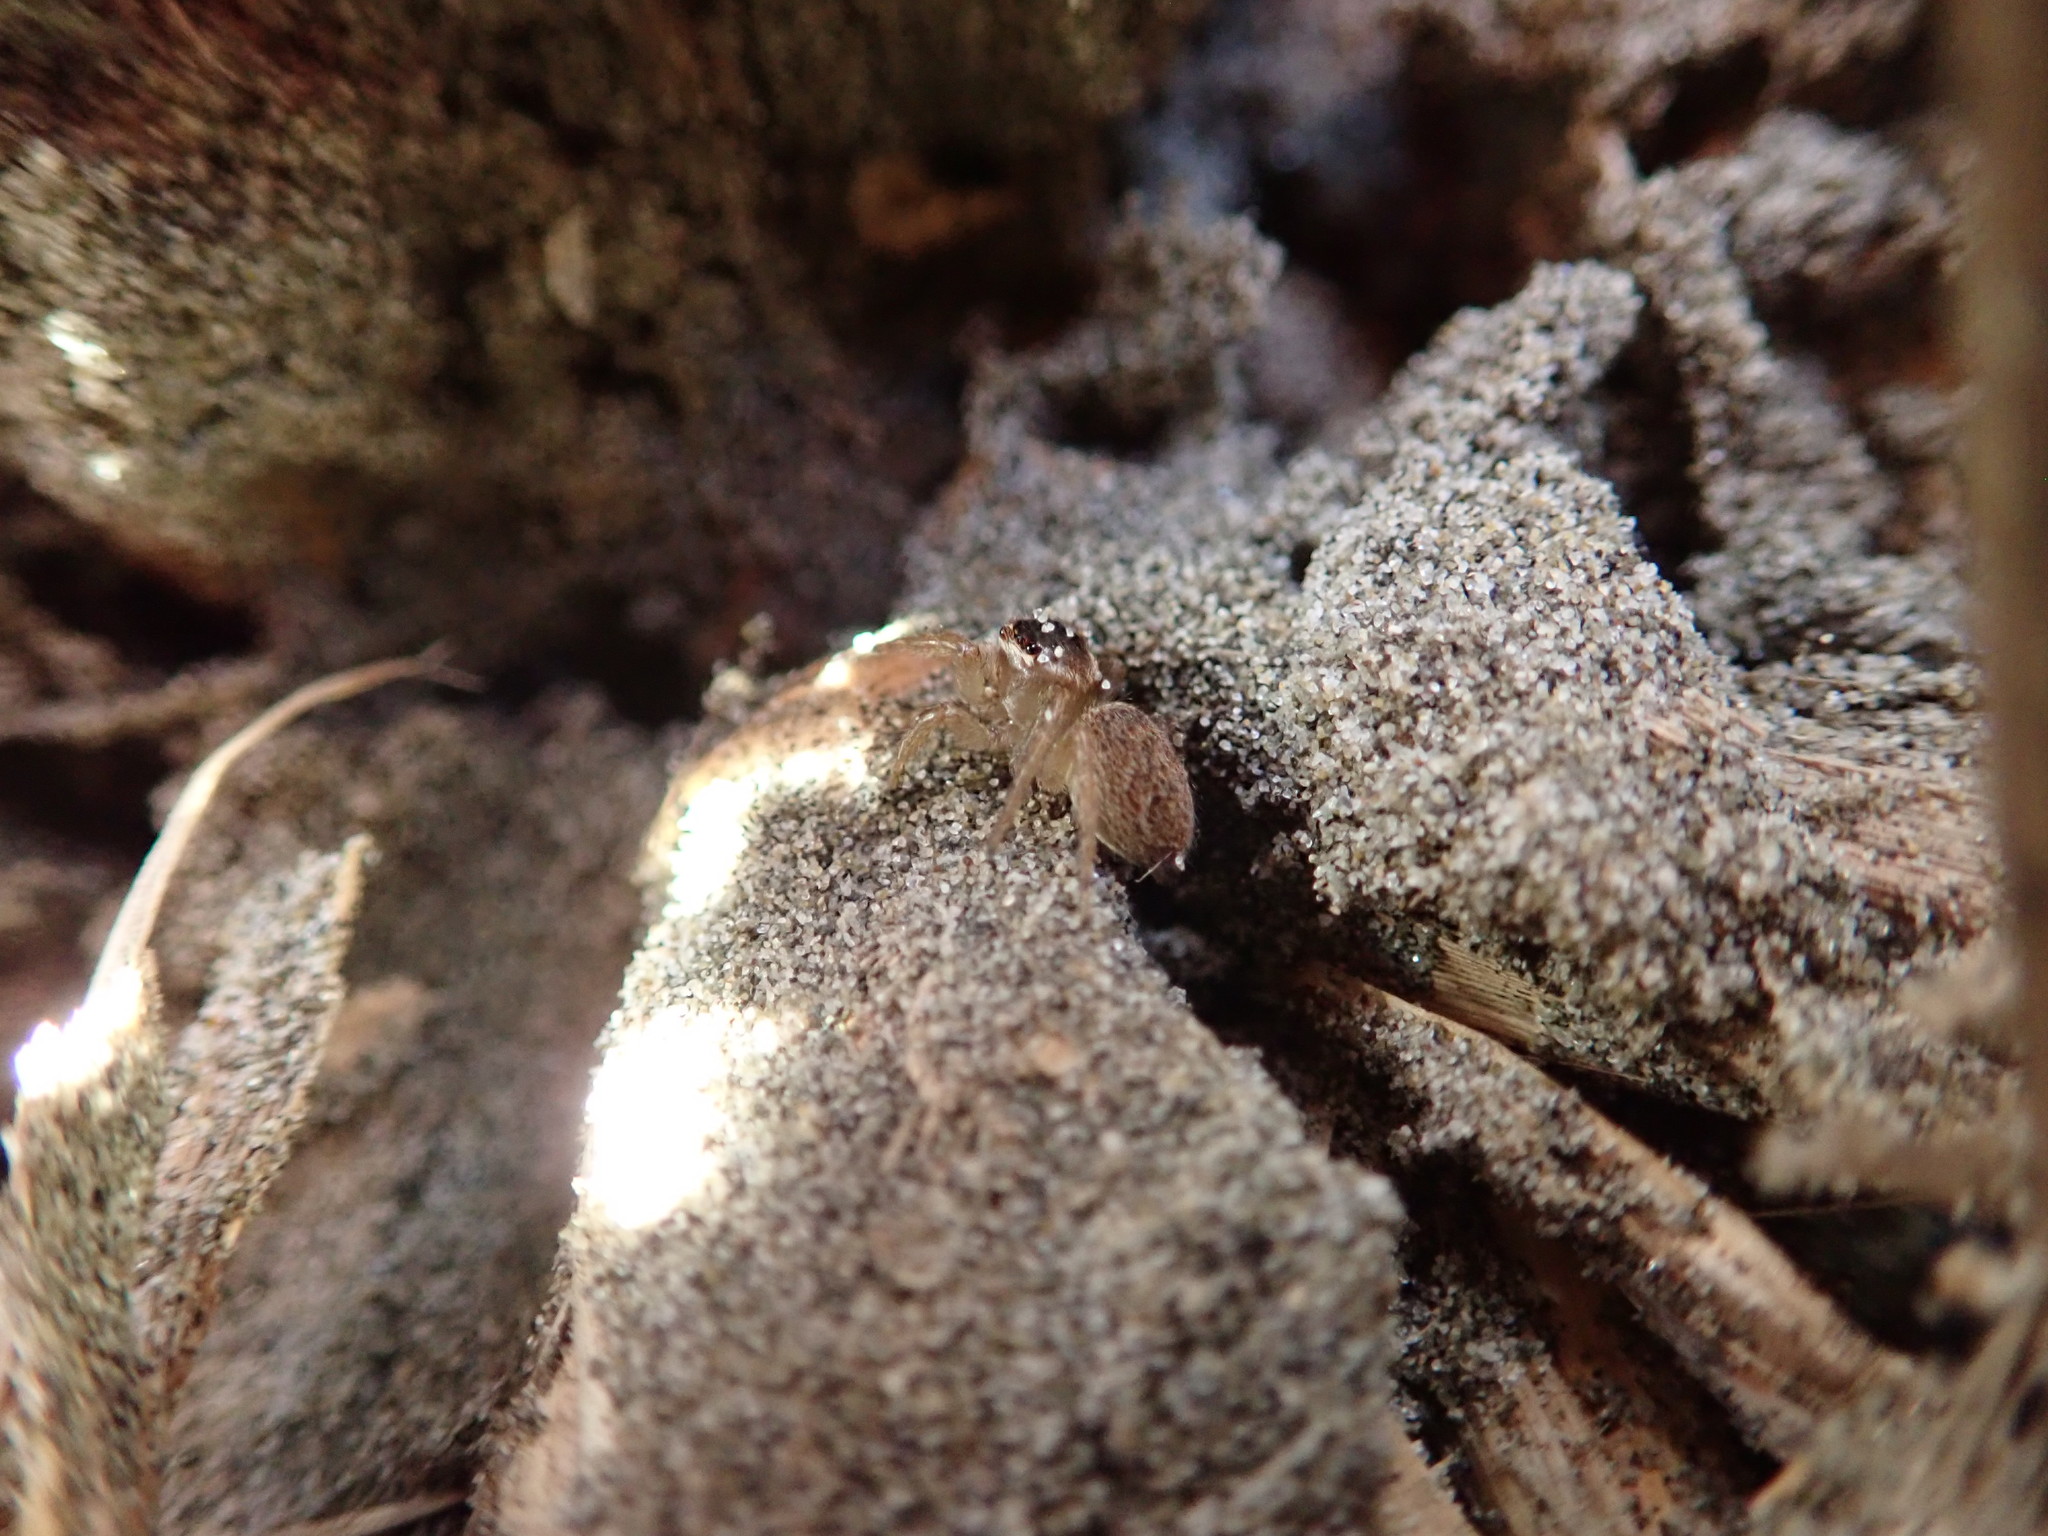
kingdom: Animalia
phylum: Arthropoda
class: Arachnida
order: Araneae
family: Salticidae
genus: Maratus
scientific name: Maratus griseus
